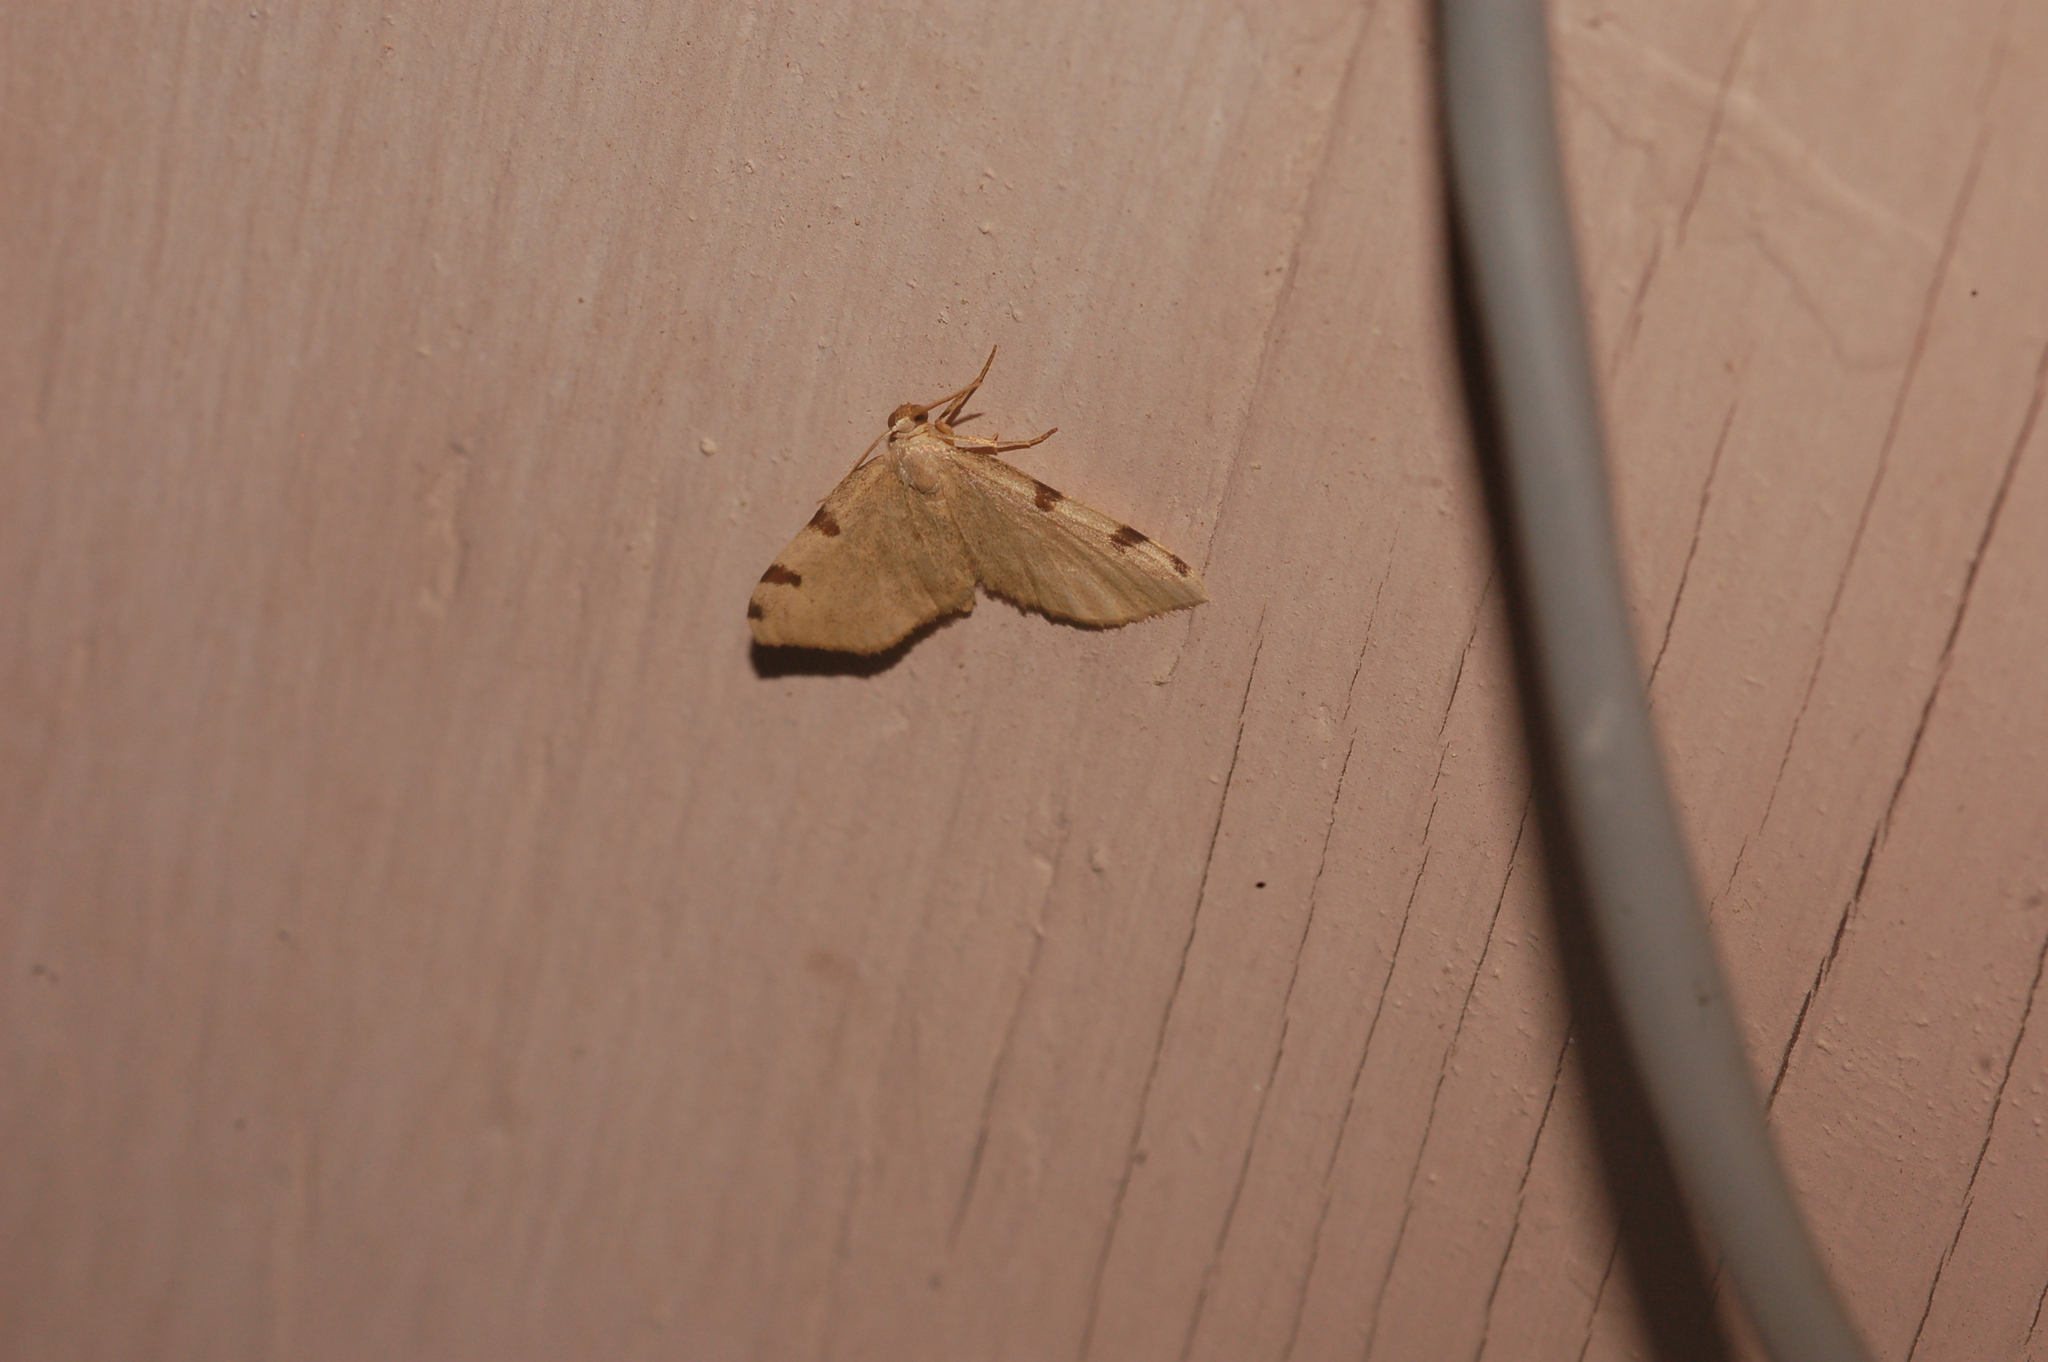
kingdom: Animalia
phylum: Arthropoda
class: Insecta
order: Lepidoptera
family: Geometridae
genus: Heterophleps
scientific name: Heterophleps triguttaria
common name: Three-spotted fillip
